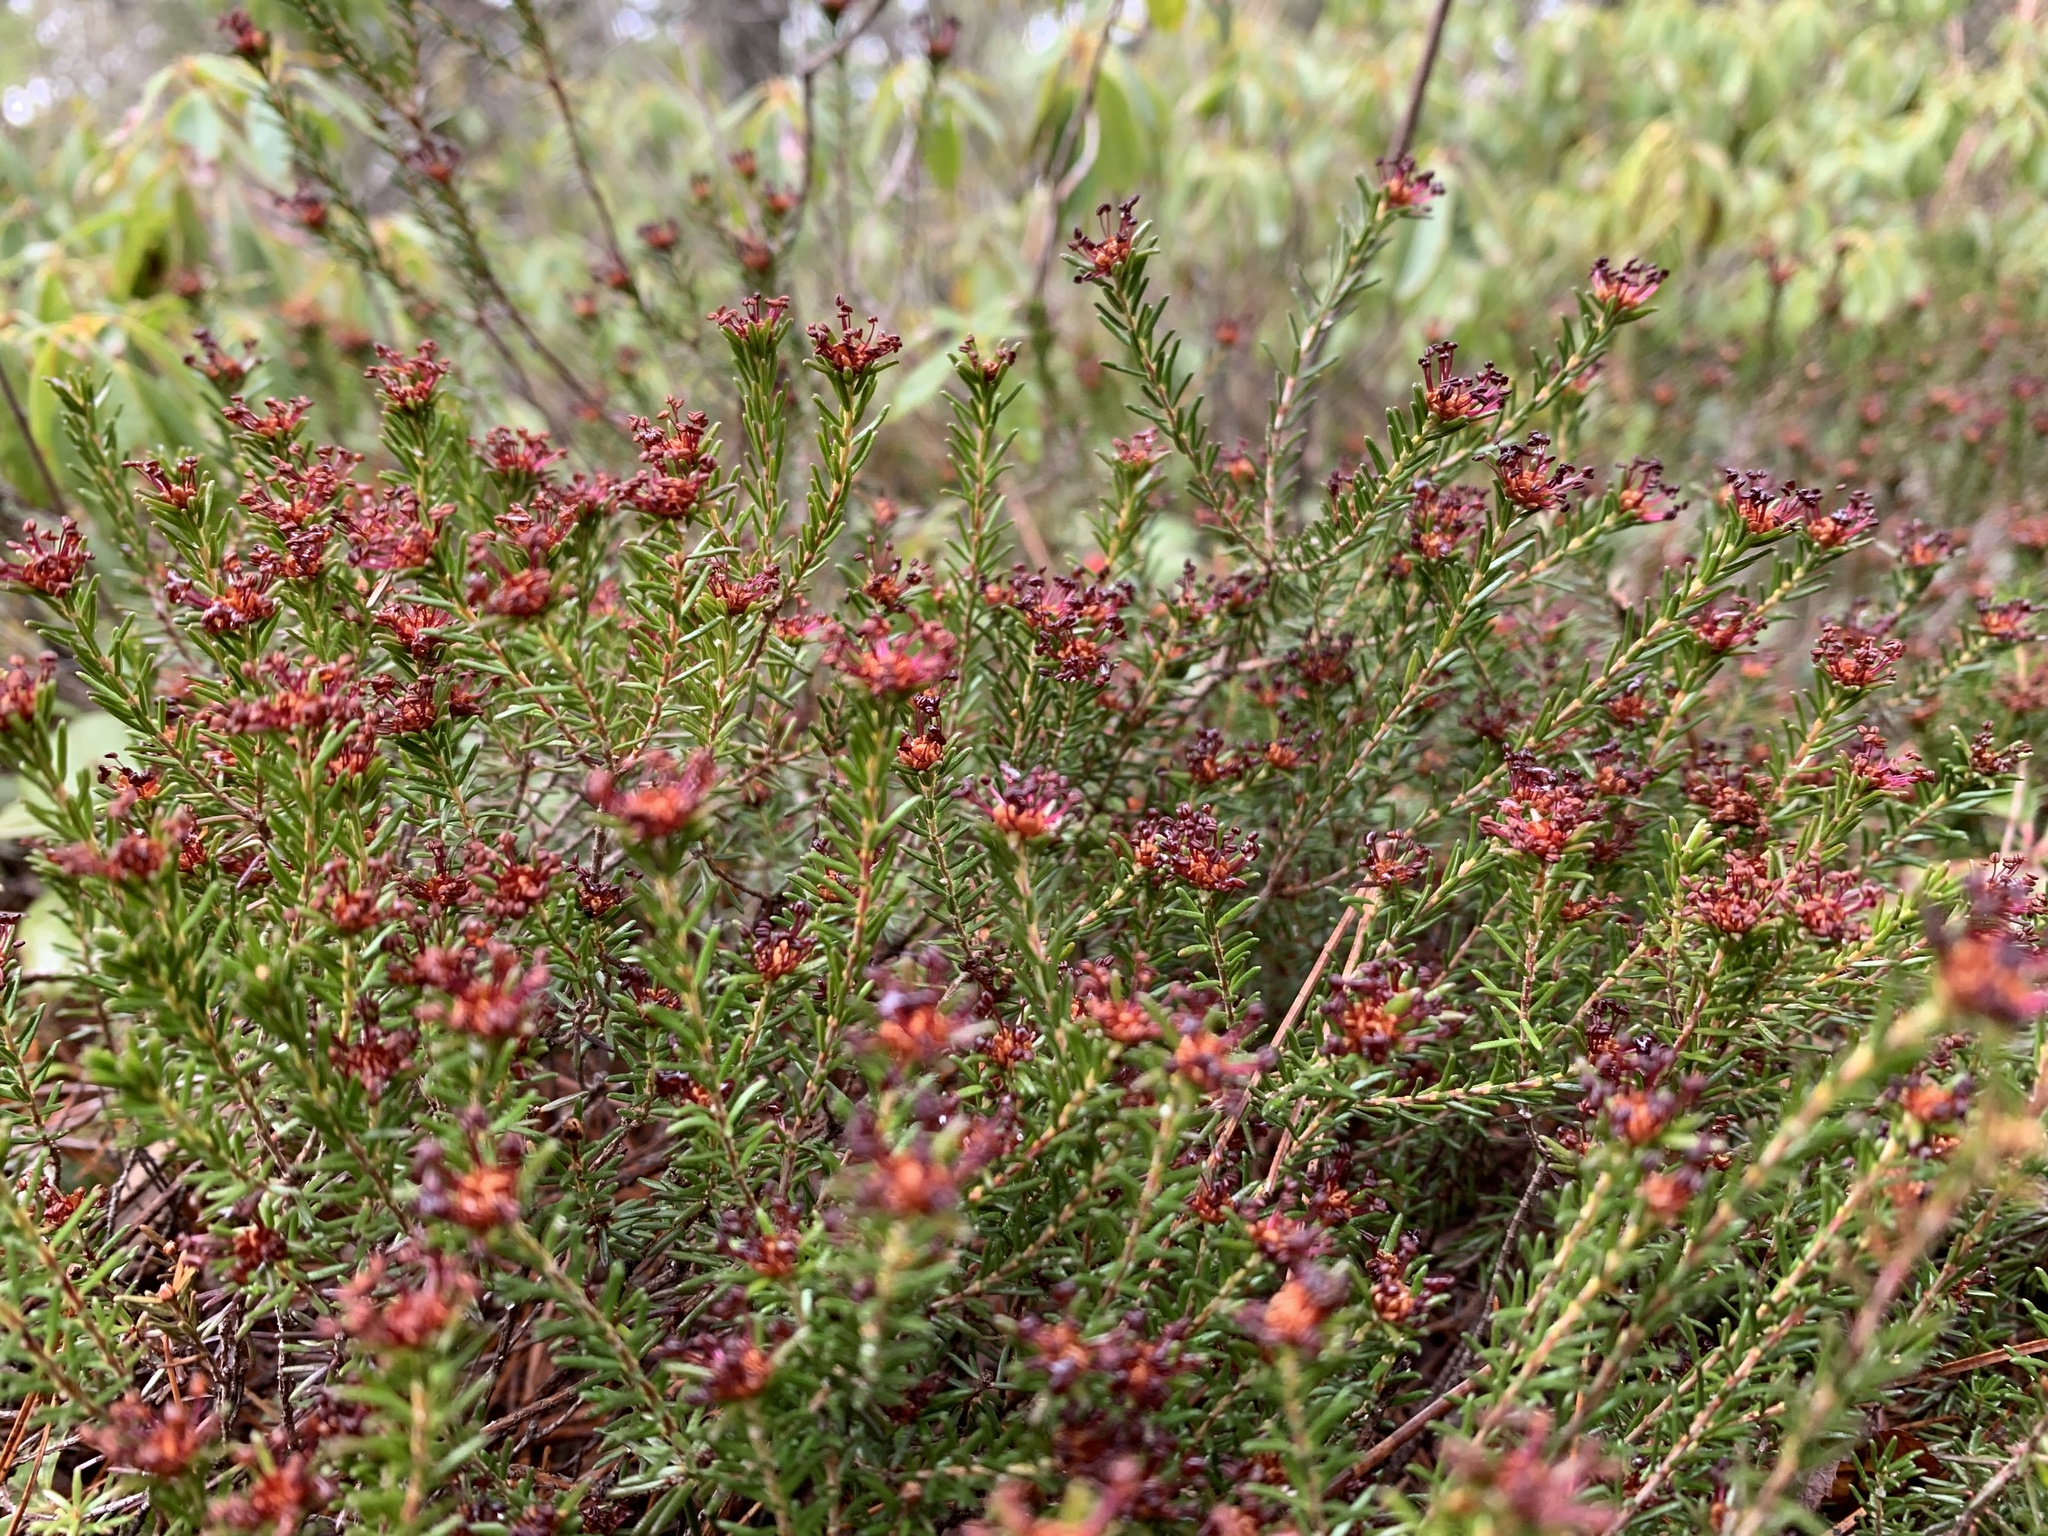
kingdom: Plantae
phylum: Tracheophyta
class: Magnoliopsida
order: Ericales
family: Ericaceae
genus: Corema
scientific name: Corema conradii
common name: Broom-crowberry
